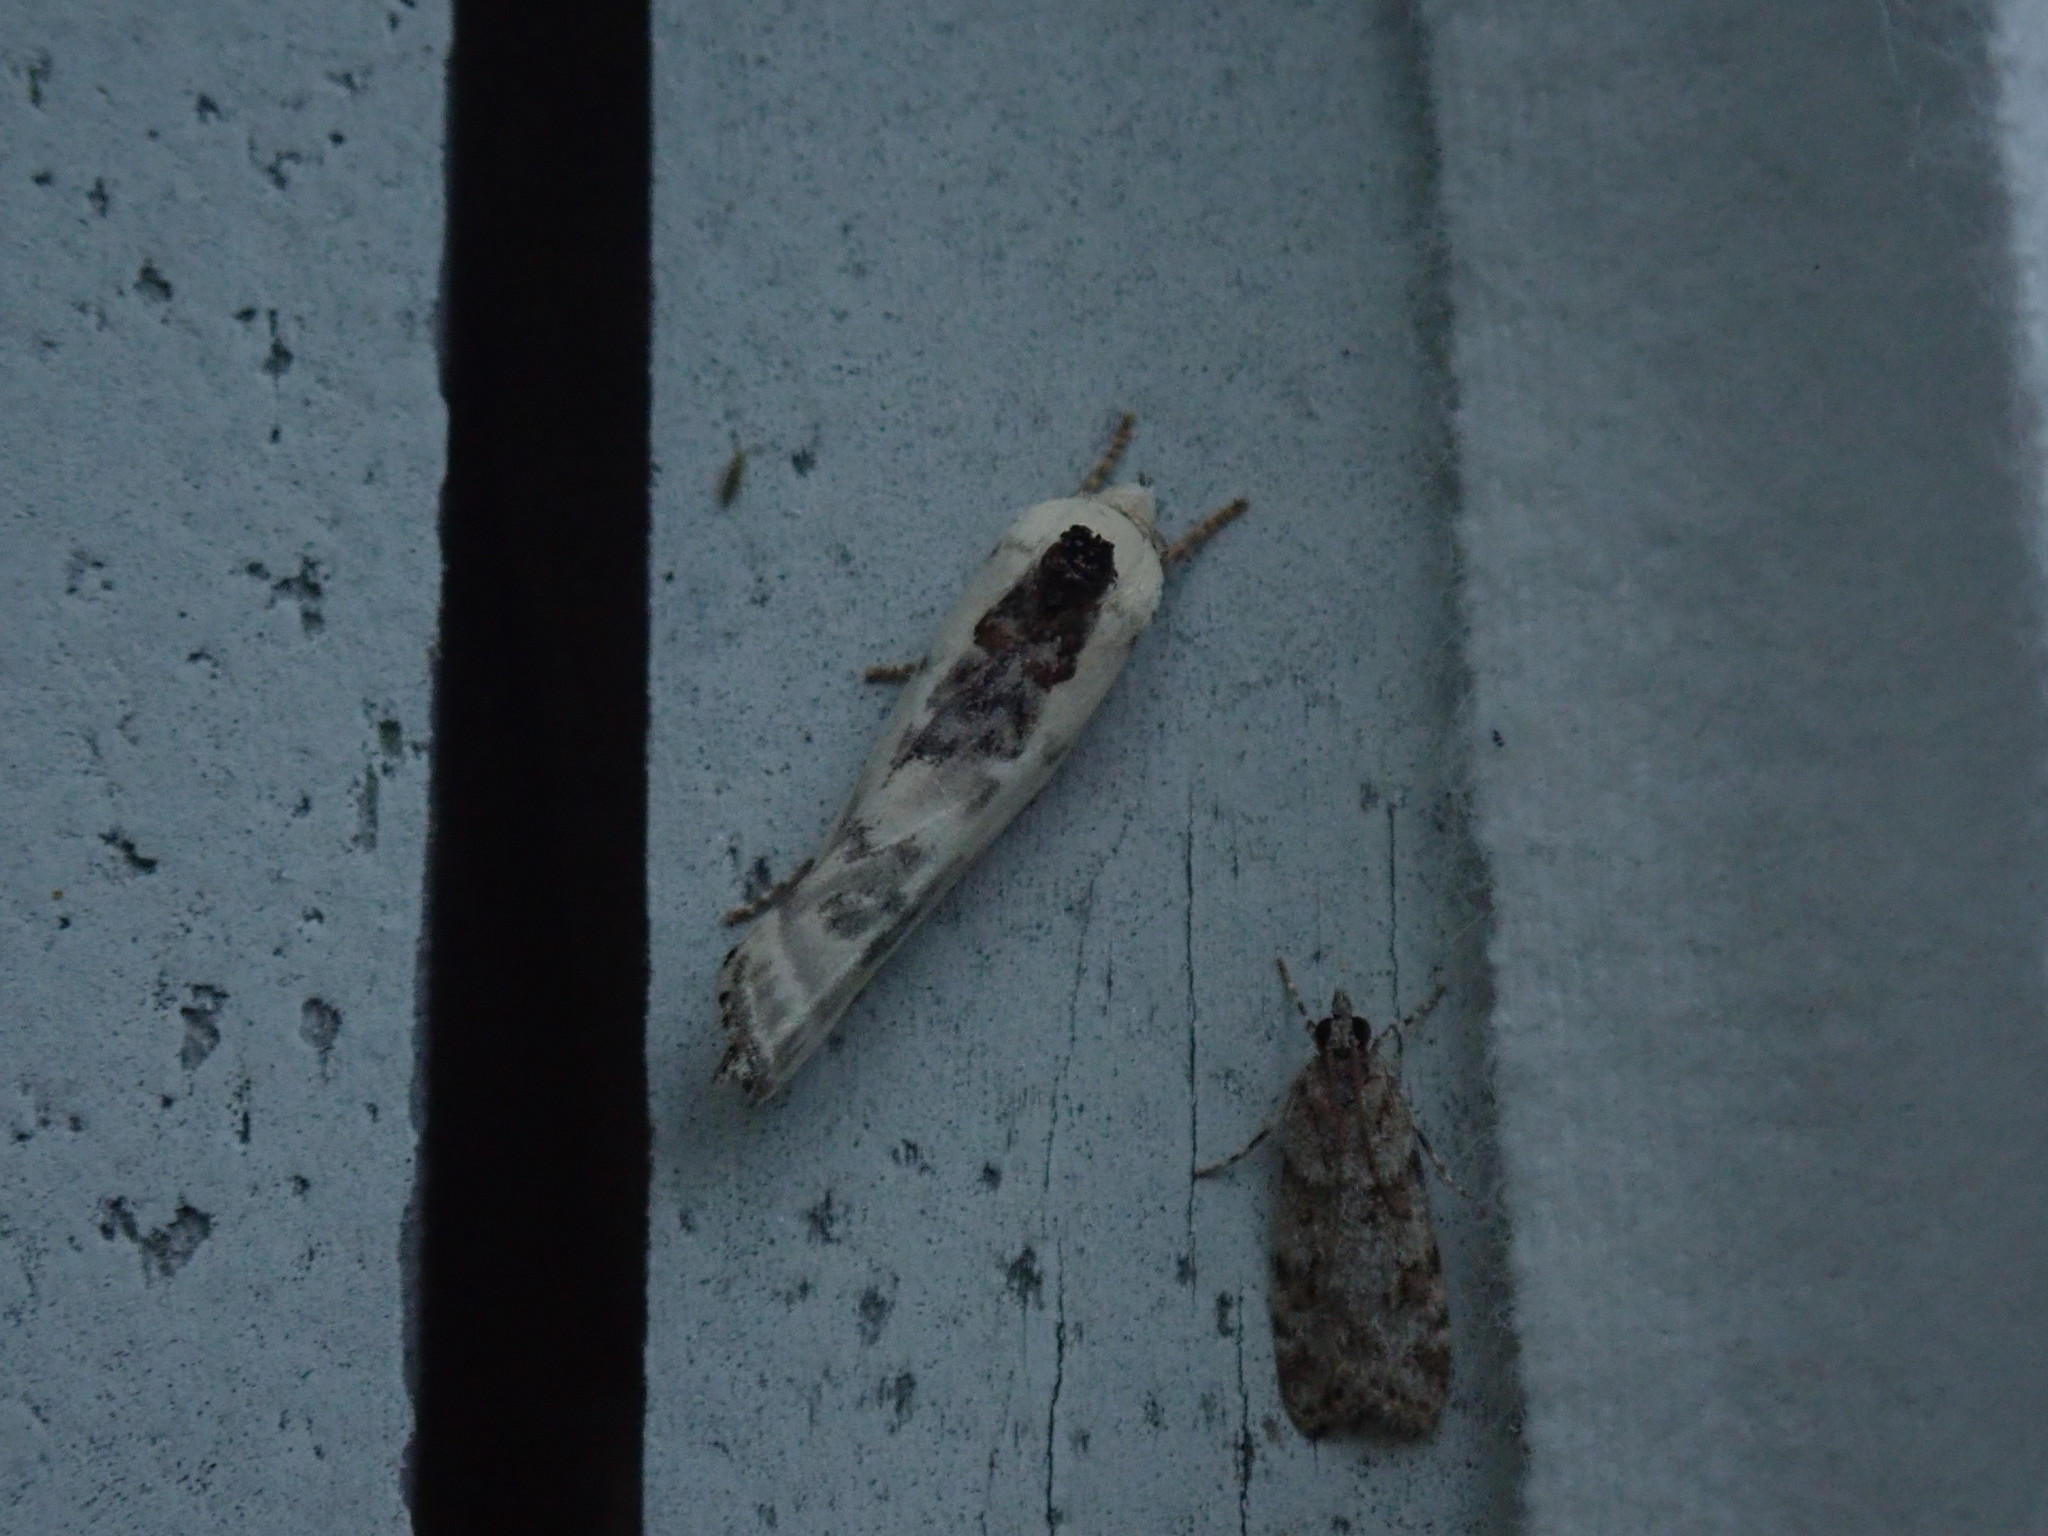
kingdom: Animalia
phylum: Arthropoda
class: Insecta
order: Lepidoptera
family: Depressariidae
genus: Antaeotricha
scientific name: Antaeotricha schlaegeri
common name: Schlaeger's fruitworm moth
